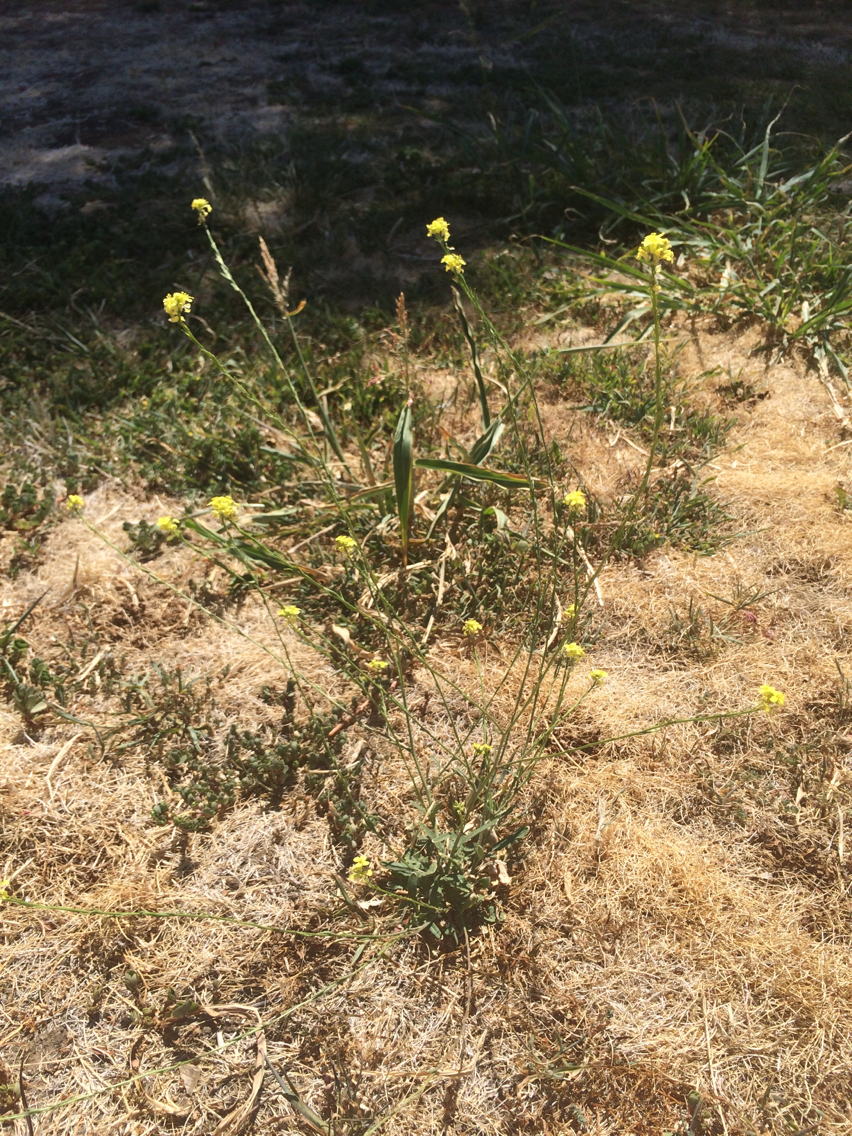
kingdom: Plantae
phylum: Tracheophyta
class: Magnoliopsida
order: Brassicales
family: Brassicaceae
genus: Hirschfeldia
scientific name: Hirschfeldia incana
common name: Hoary mustard
